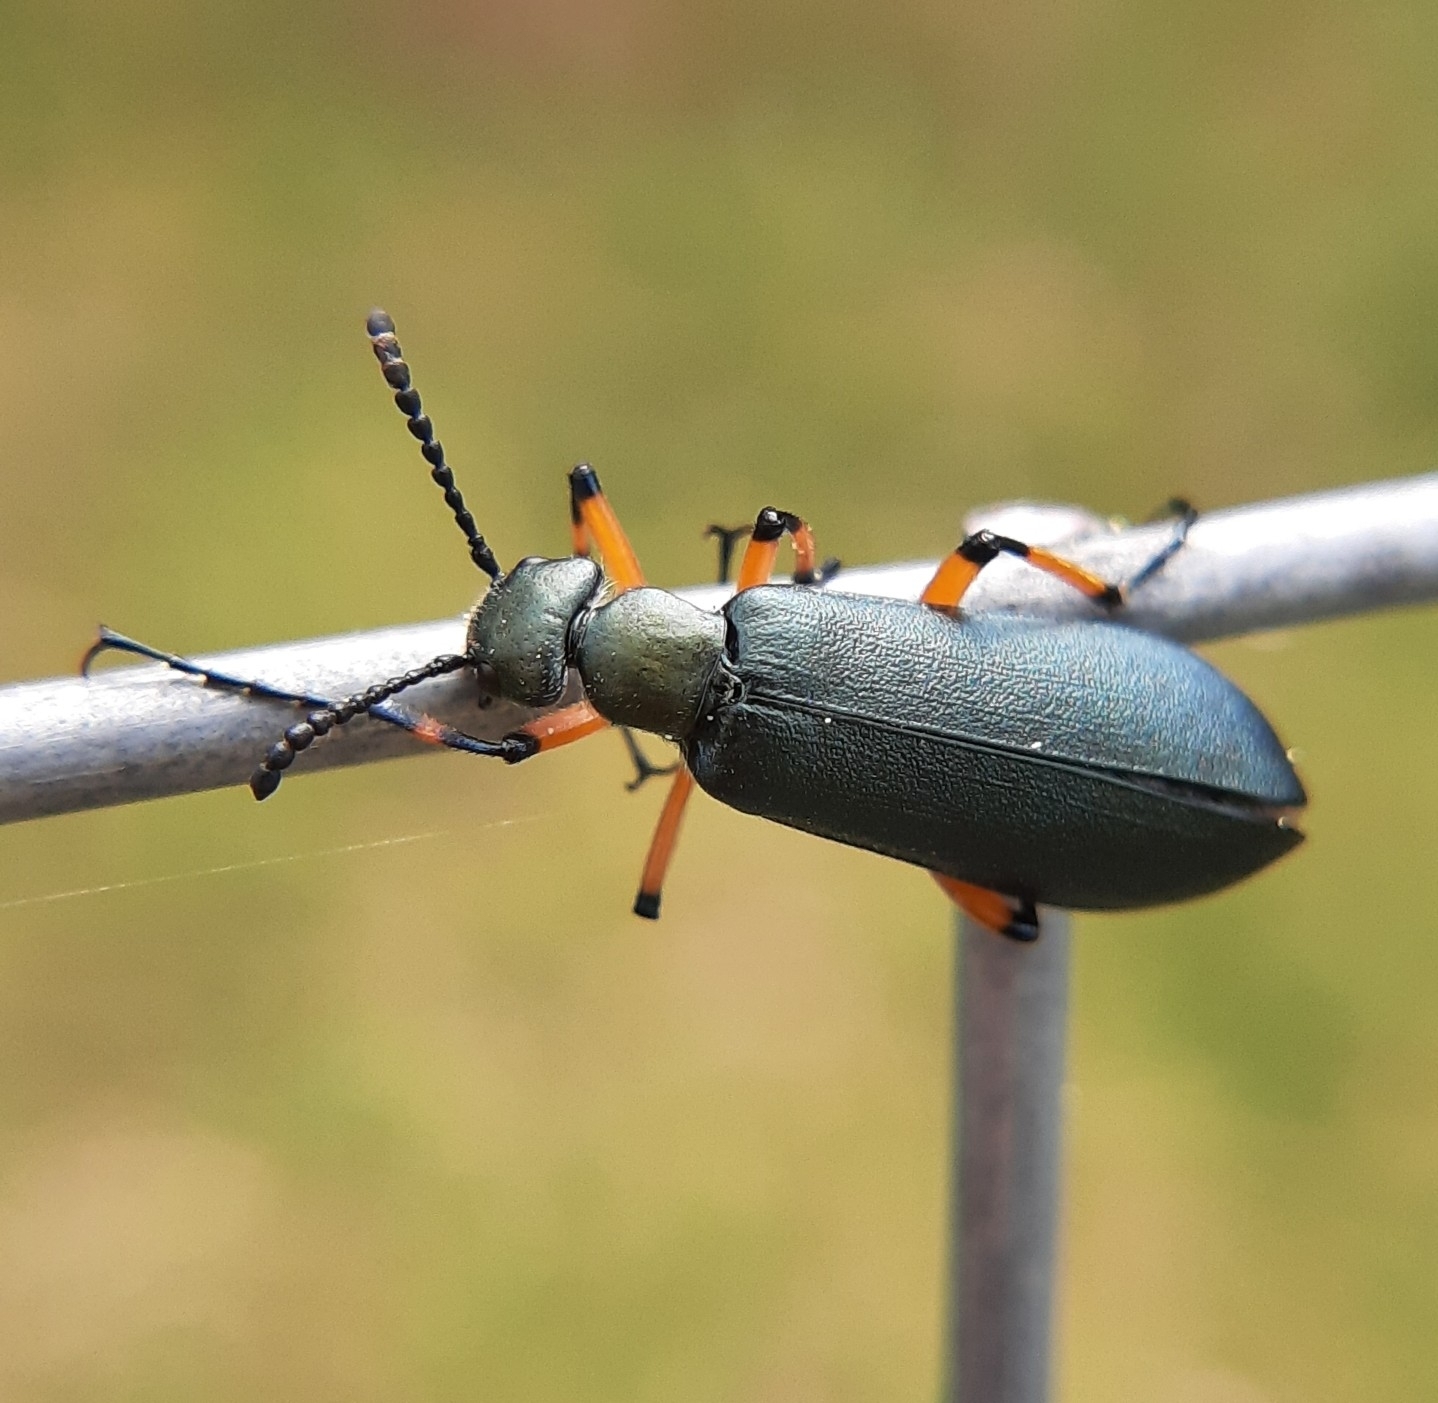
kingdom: Animalia
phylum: Arthropoda
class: Insecta
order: Coleoptera
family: Meloidae
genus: Lytta
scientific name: Lytta sayi
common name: Say's blister beetle
